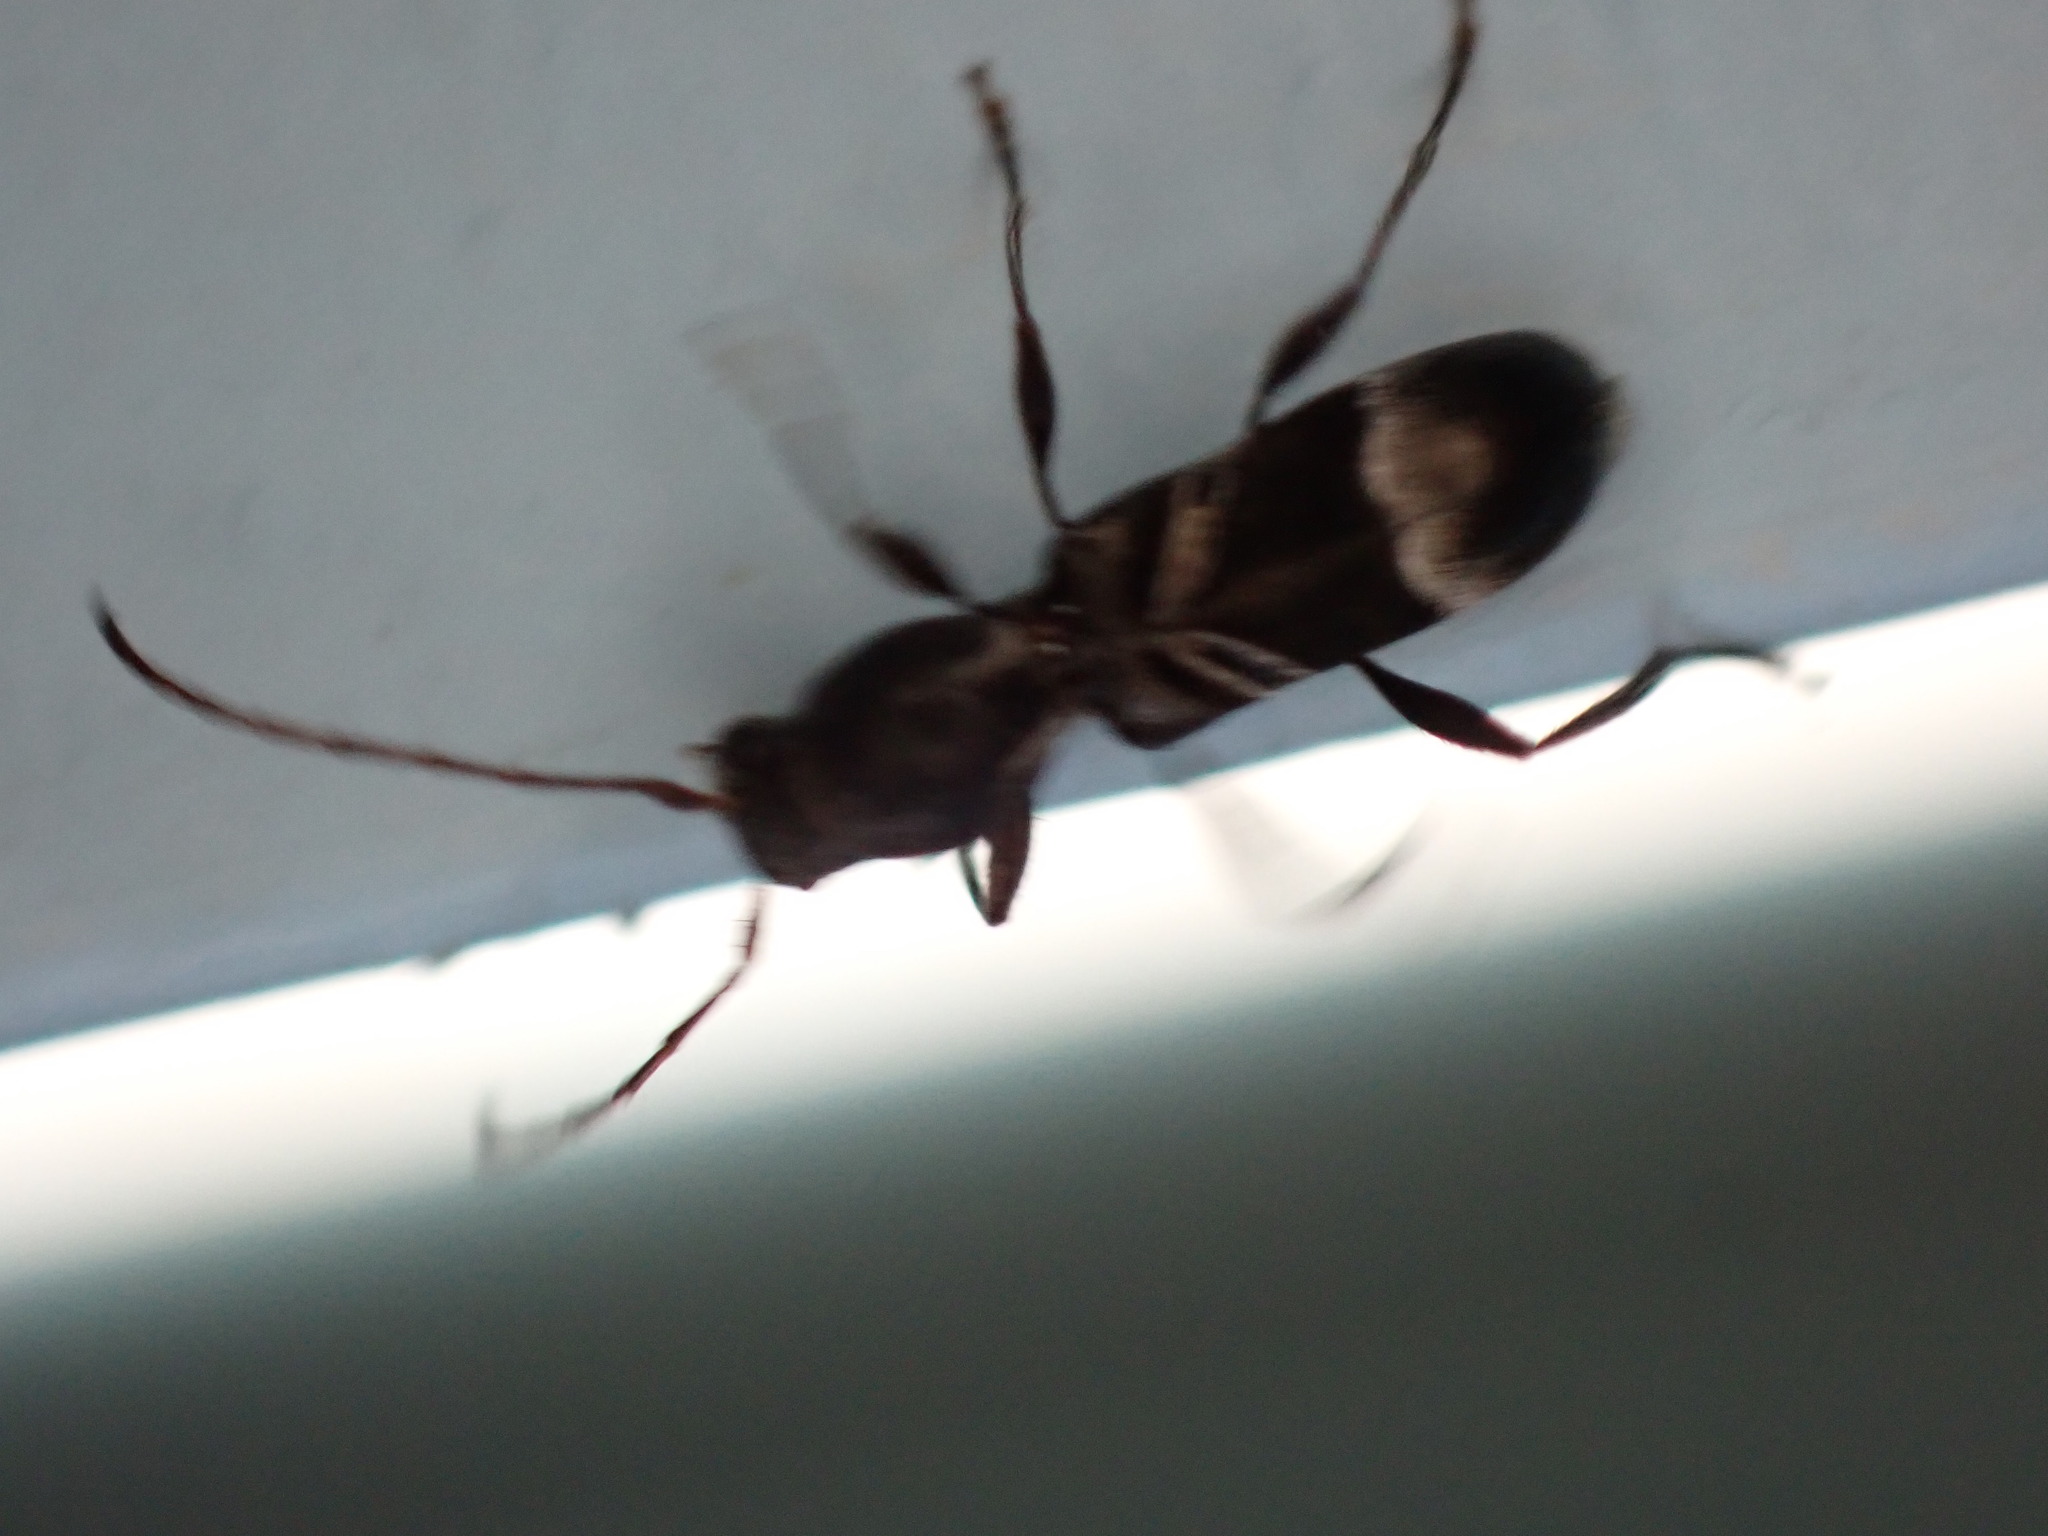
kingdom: Animalia
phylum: Arthropoda
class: Insecta
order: Coleoptera
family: Cerambycidae
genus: Tilloclytus
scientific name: Tilloclytus geminatus
